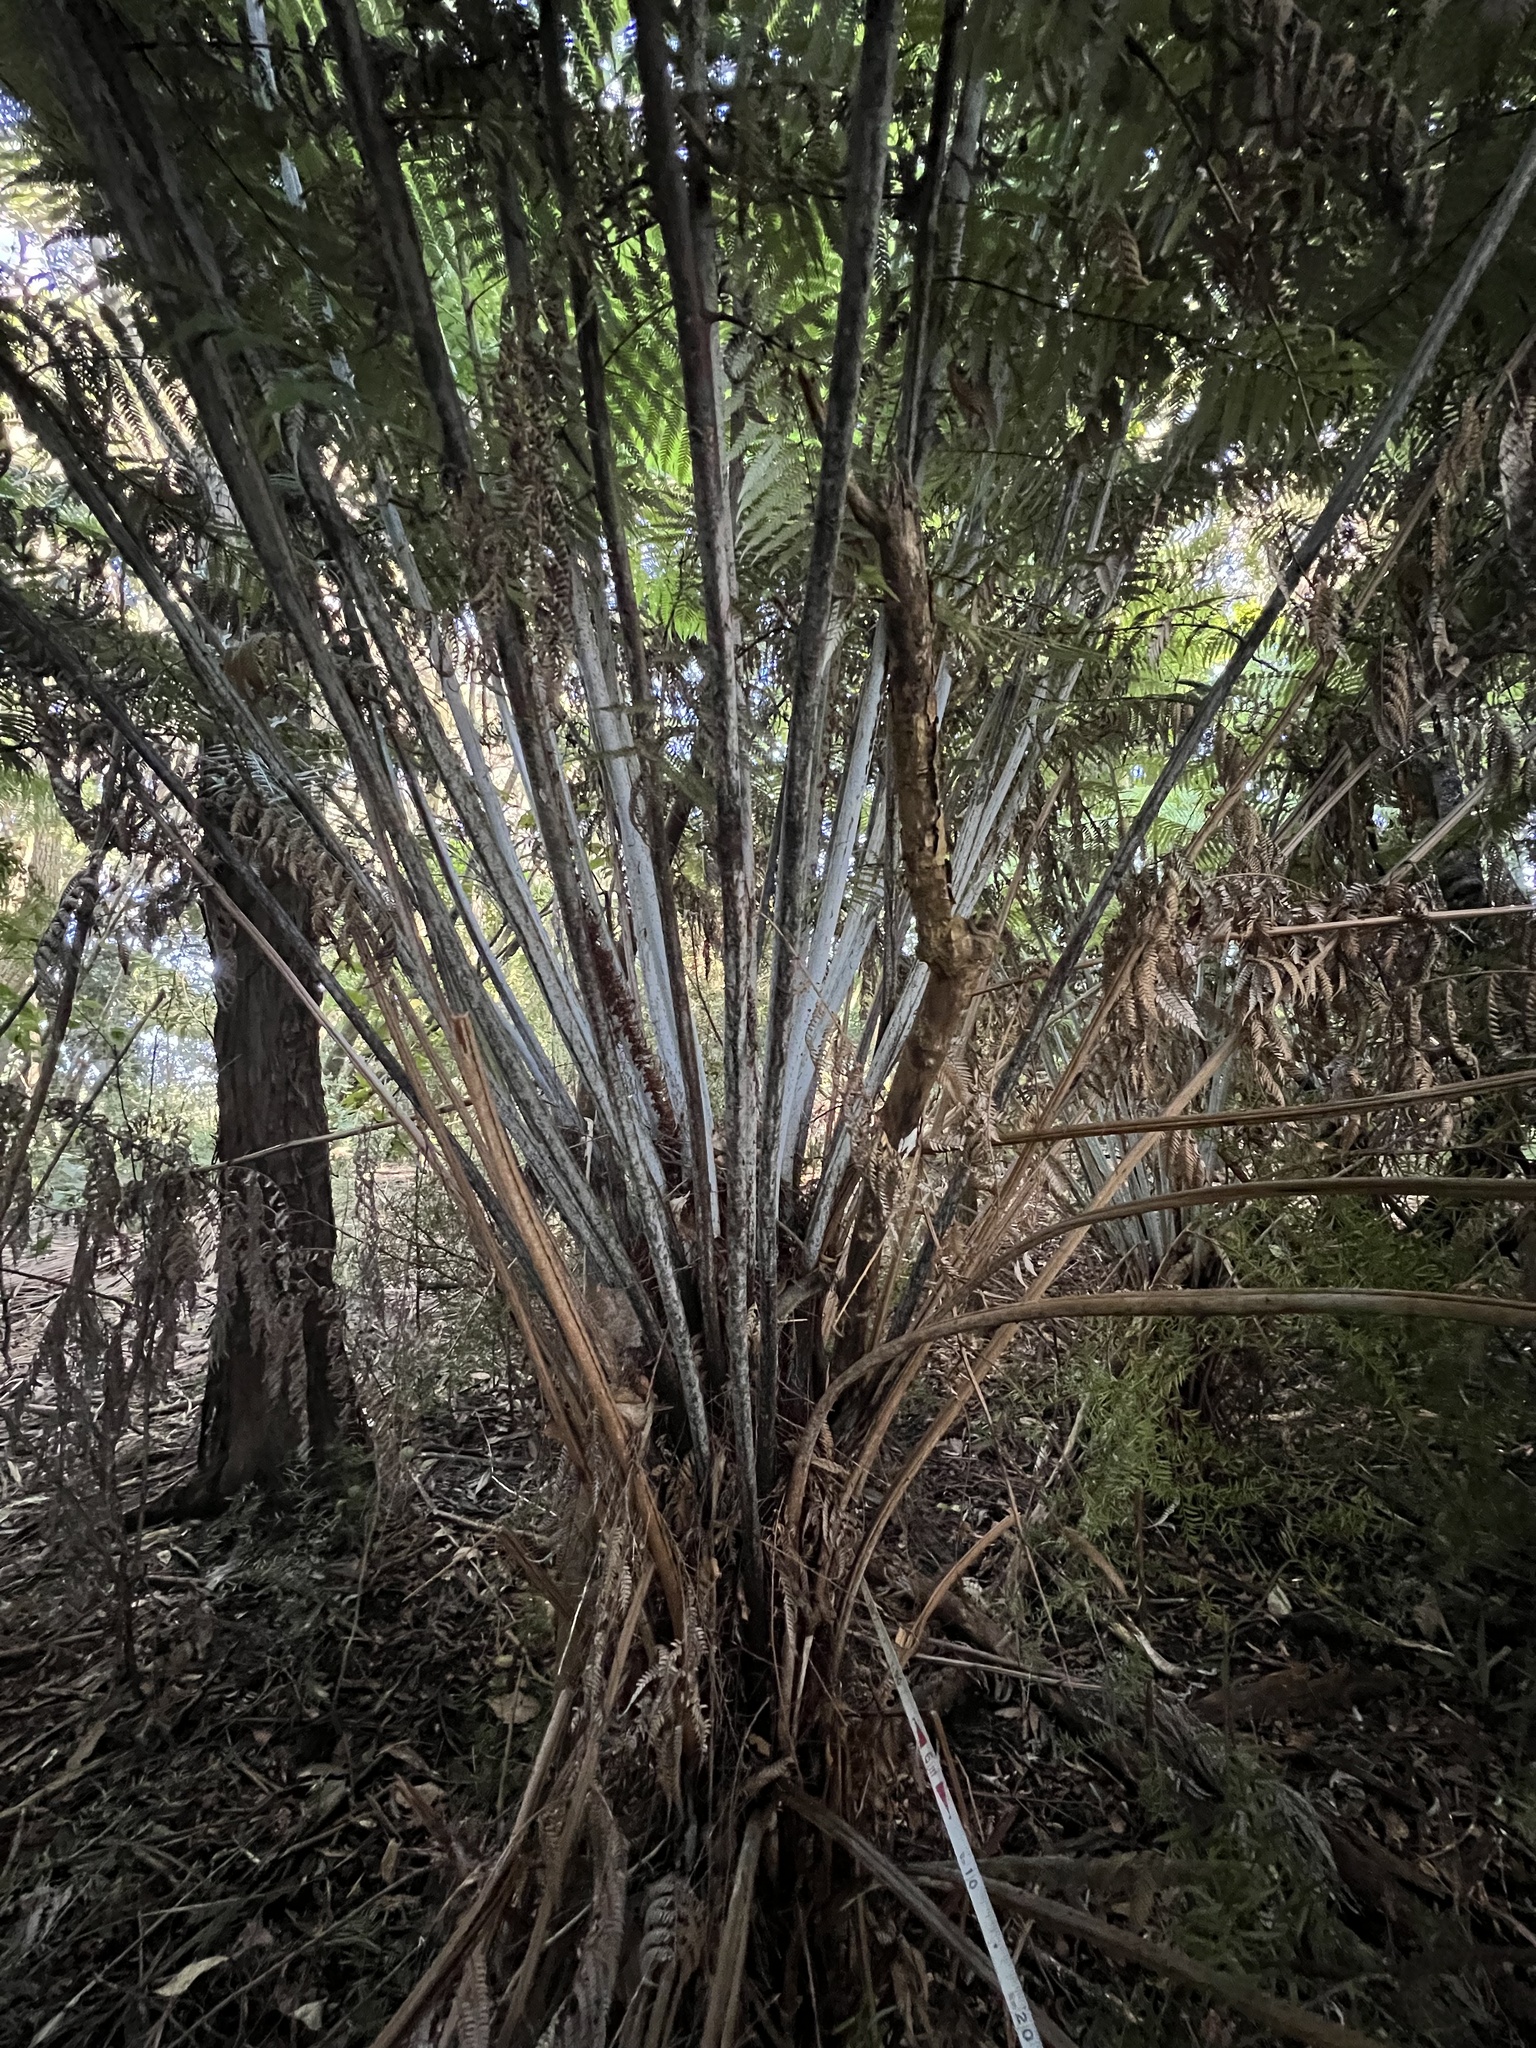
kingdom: Plantae
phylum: Tracheophyta
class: Polypodiopsida
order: Cyatheales
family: Cyatheaceae
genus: Alsophila
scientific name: Alsophila dealbata
